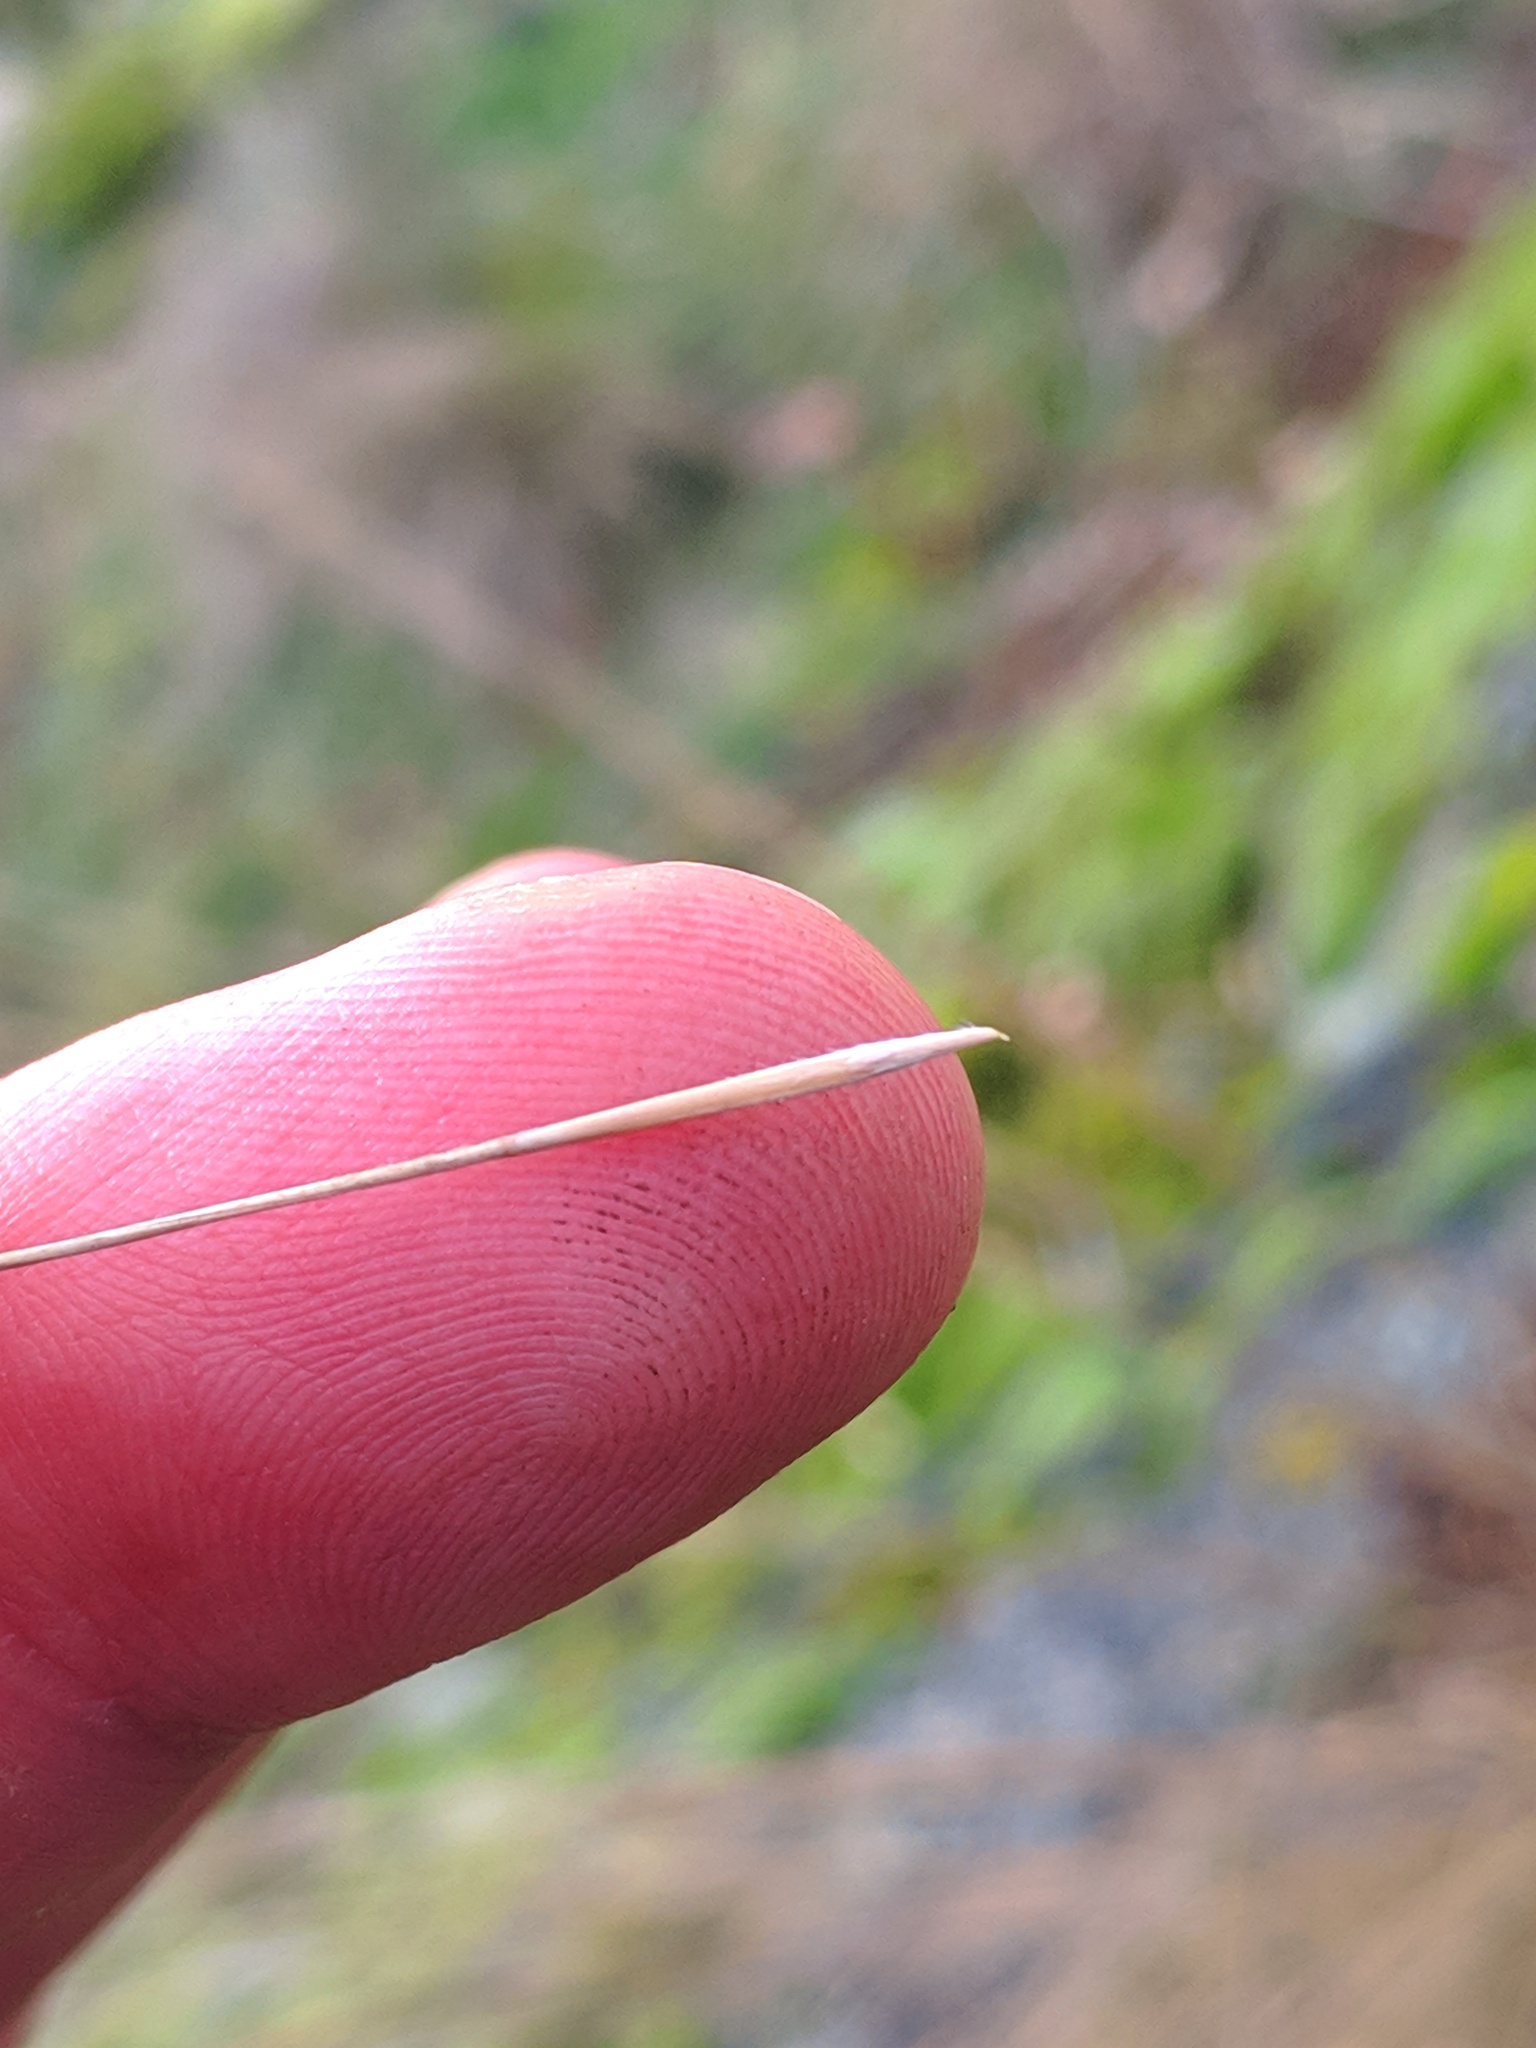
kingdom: Plantae
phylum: Tracheophyta
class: Liliopsida
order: Poales
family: Poaceae
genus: Stipa
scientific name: Stipa capillata
